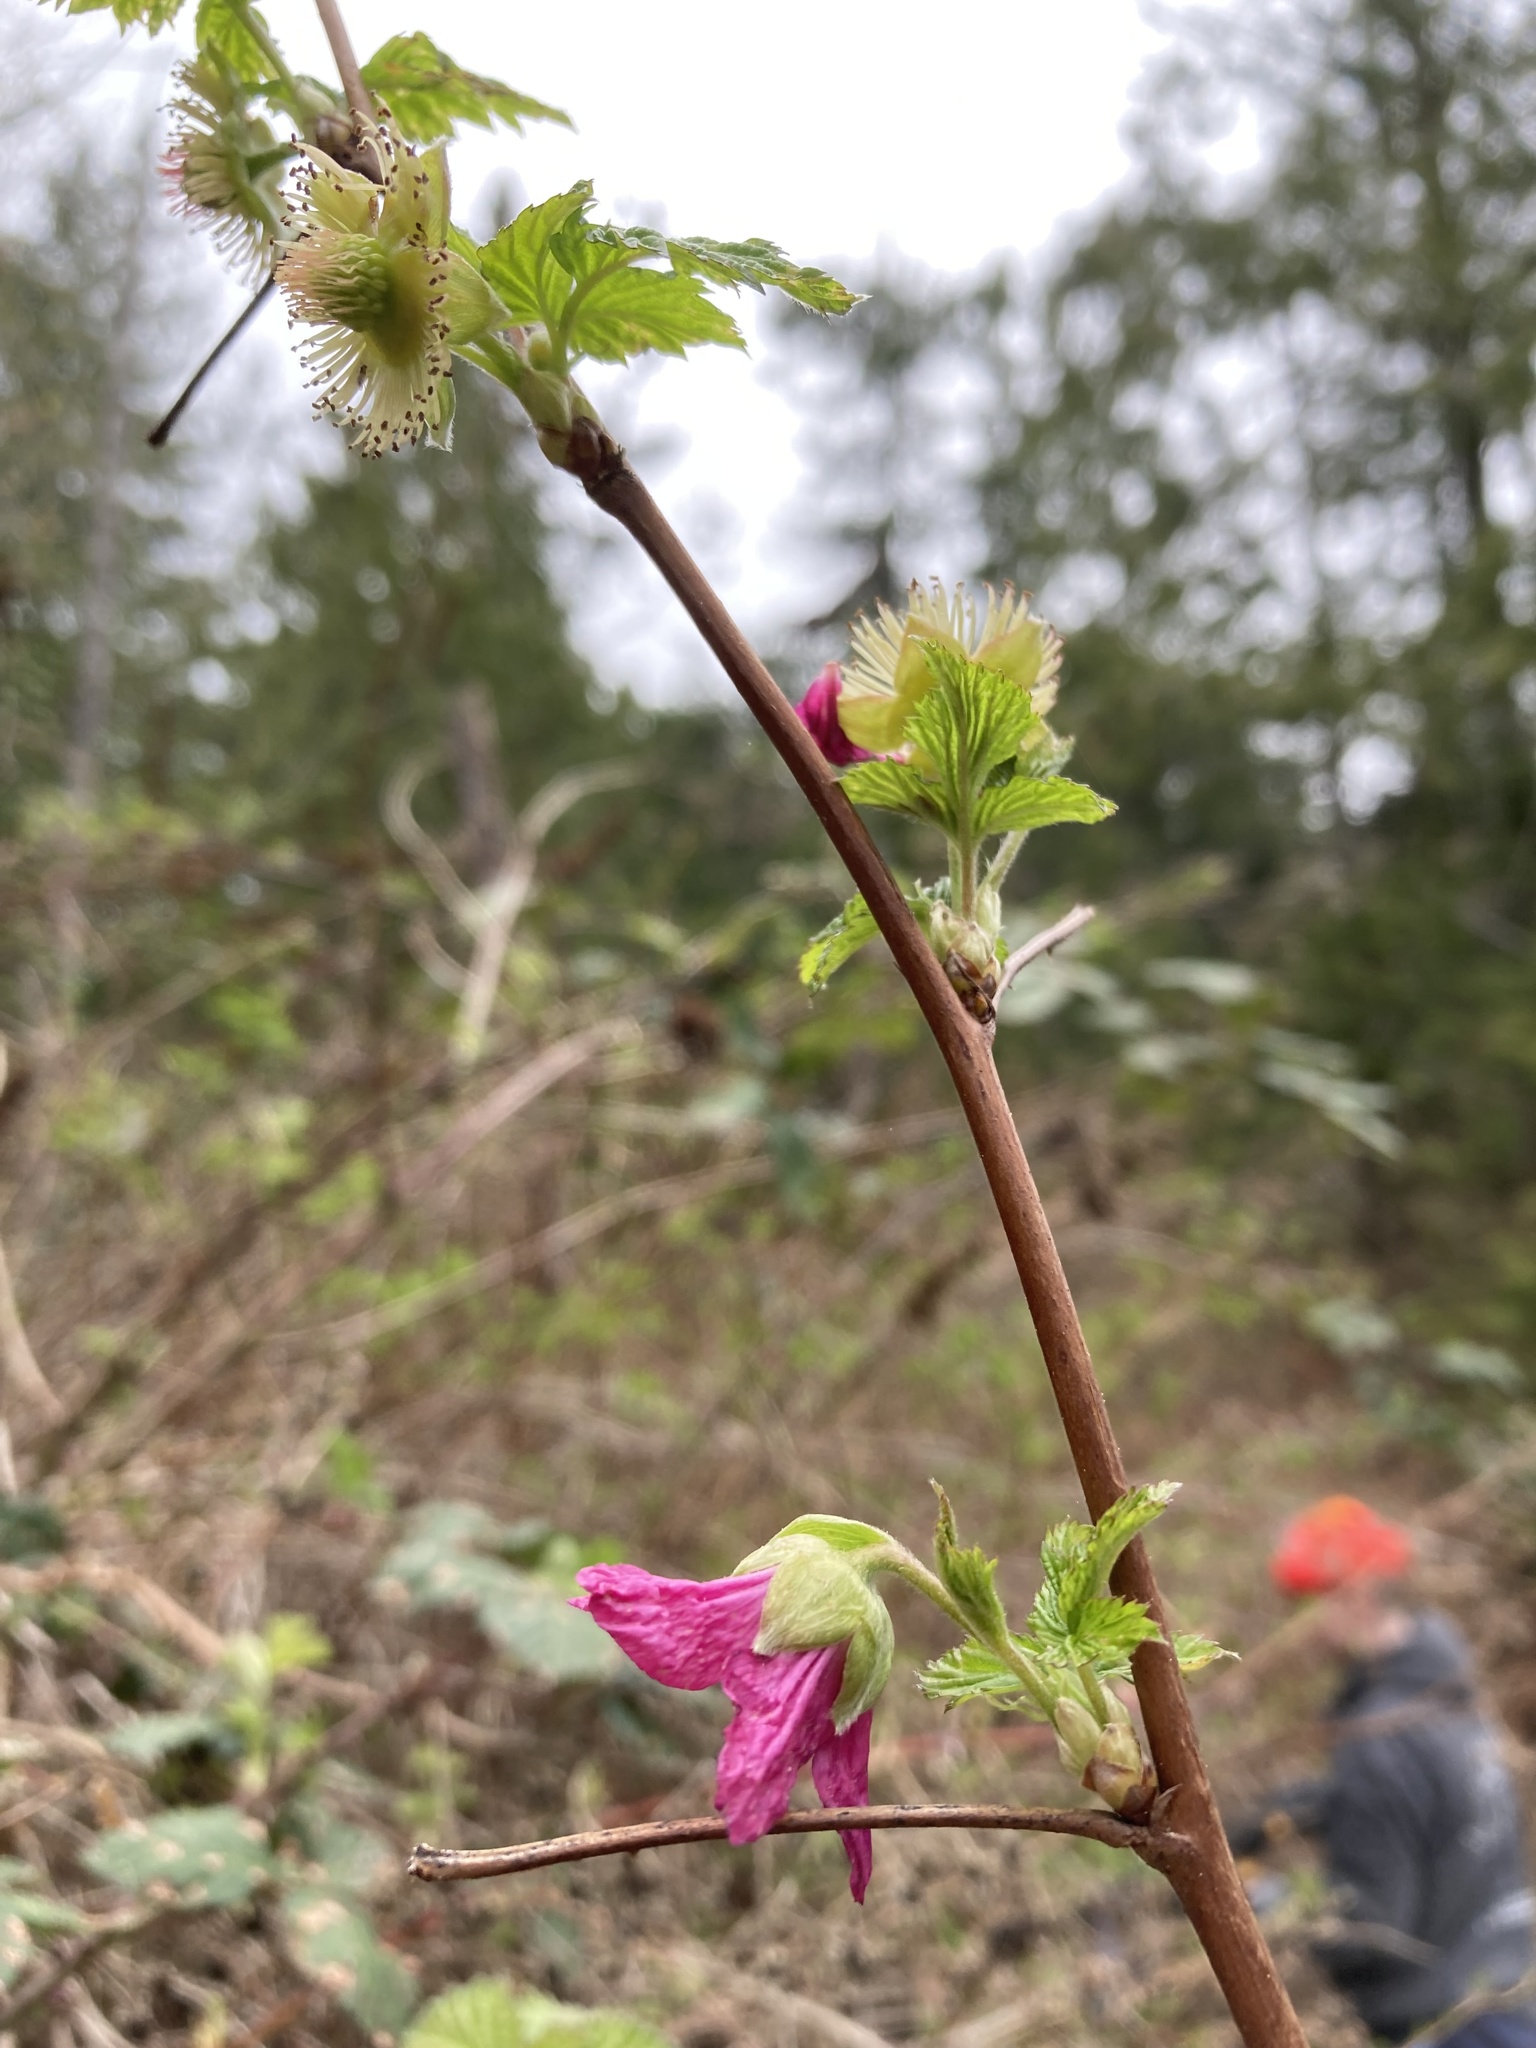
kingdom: Plantae
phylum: Tracheophyta
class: Magnoliopsida
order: Rosales
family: Rosaceae
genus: Rubus
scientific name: Rubus spectabilis
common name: Salmonberry
